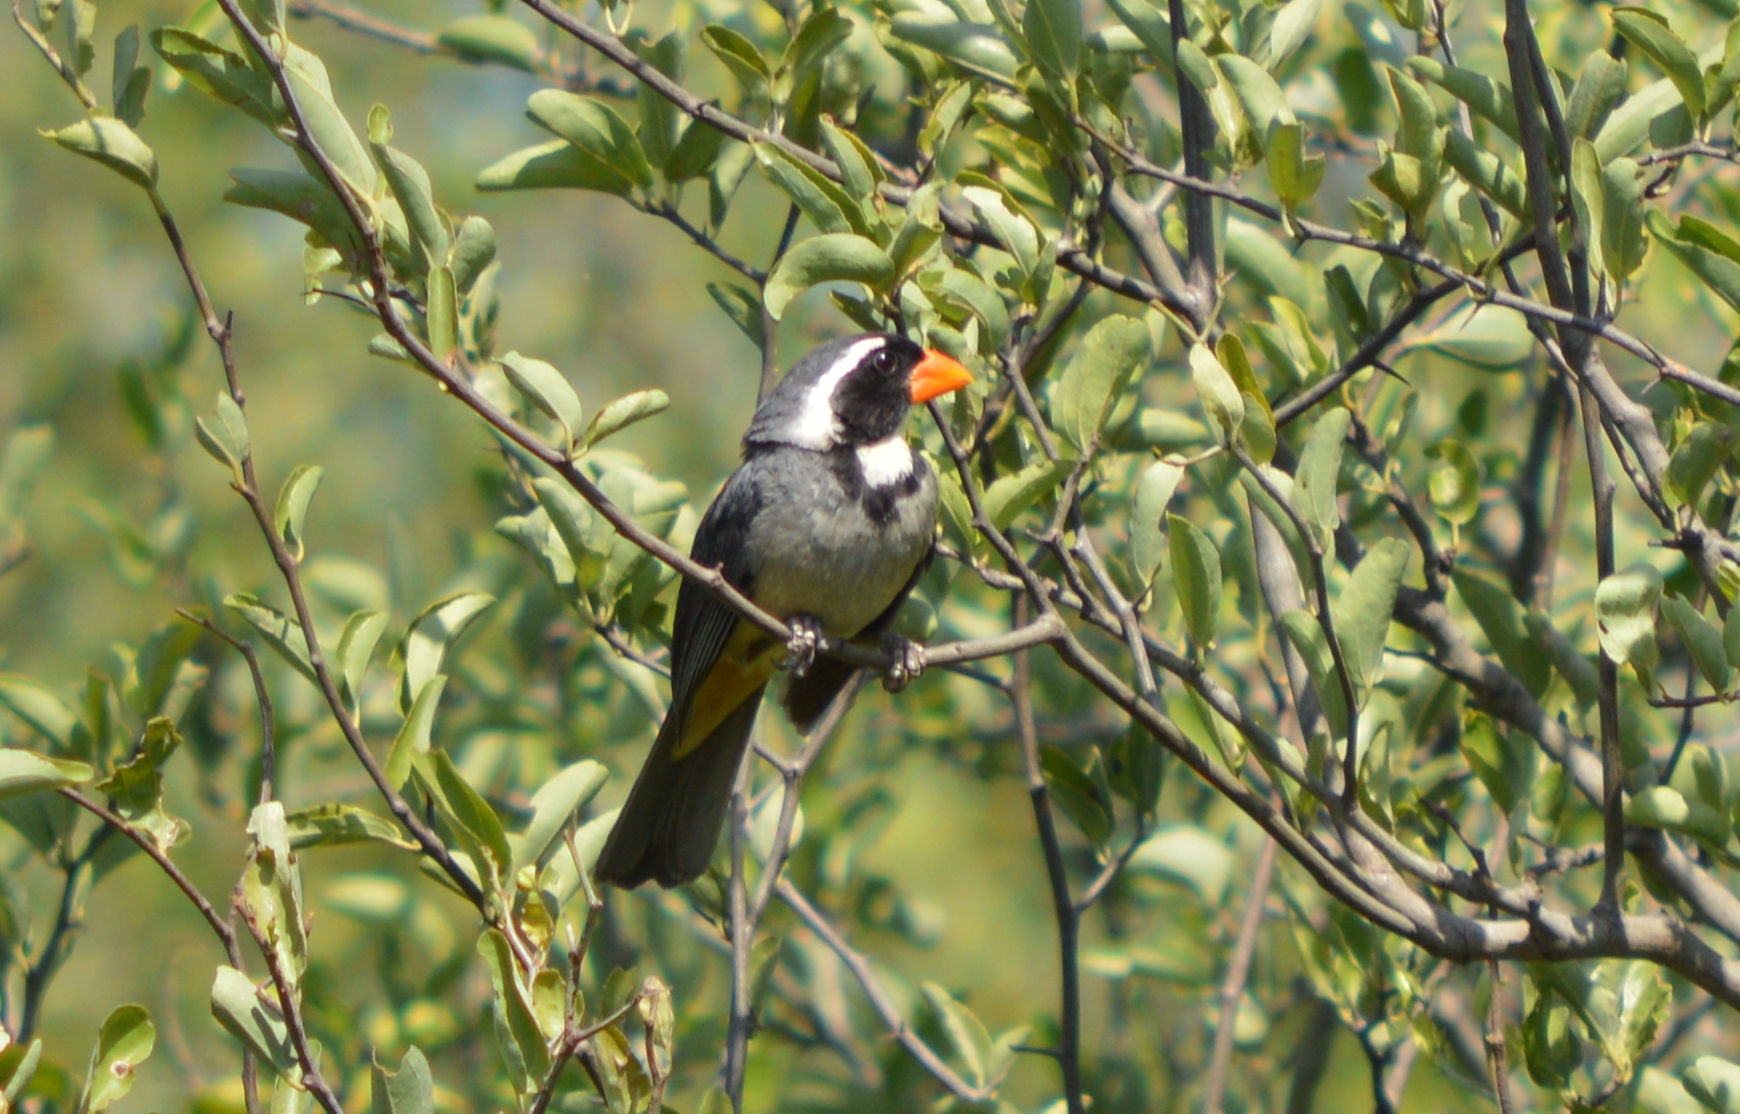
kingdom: Animalia
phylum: Chordata
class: Aves
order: Passeriformes
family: Thraupidae
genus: Saltator
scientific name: Saltator aurantiirostris
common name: Golden-billed saltator
